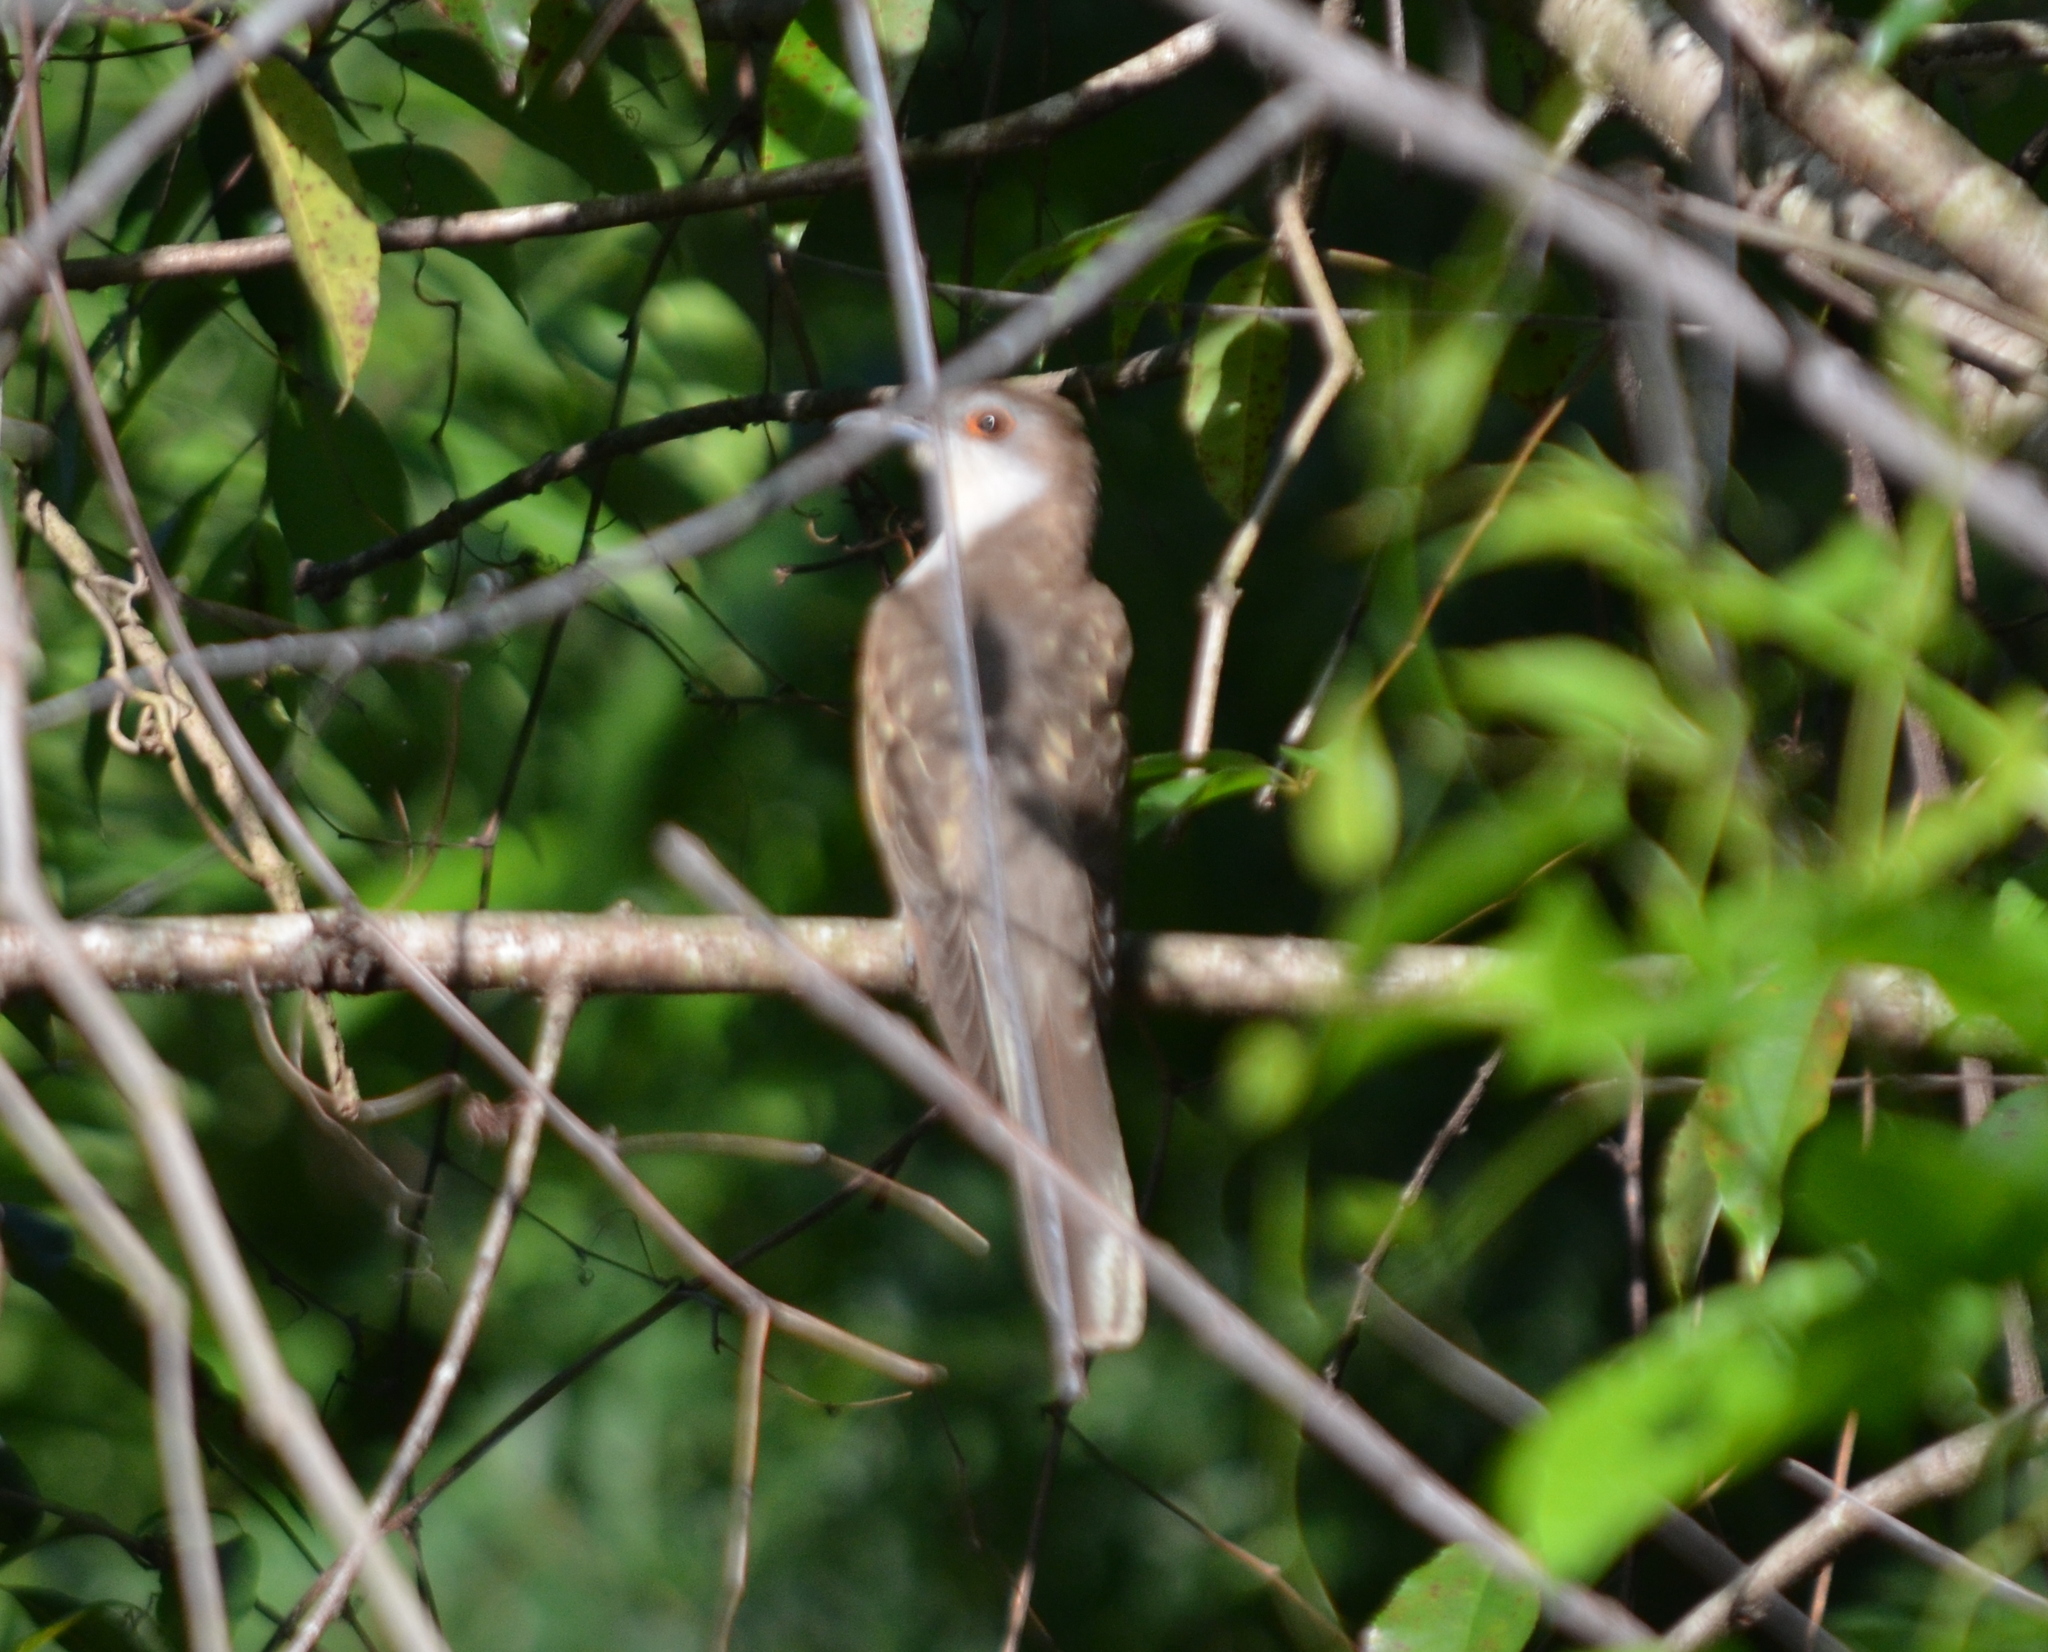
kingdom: Animalia
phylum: Chordata
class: Aves
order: Cuculiformes
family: Cuculidae
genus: Coccyzus
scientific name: Coccyzus erythropthalmus
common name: Black-billed cuckoo
